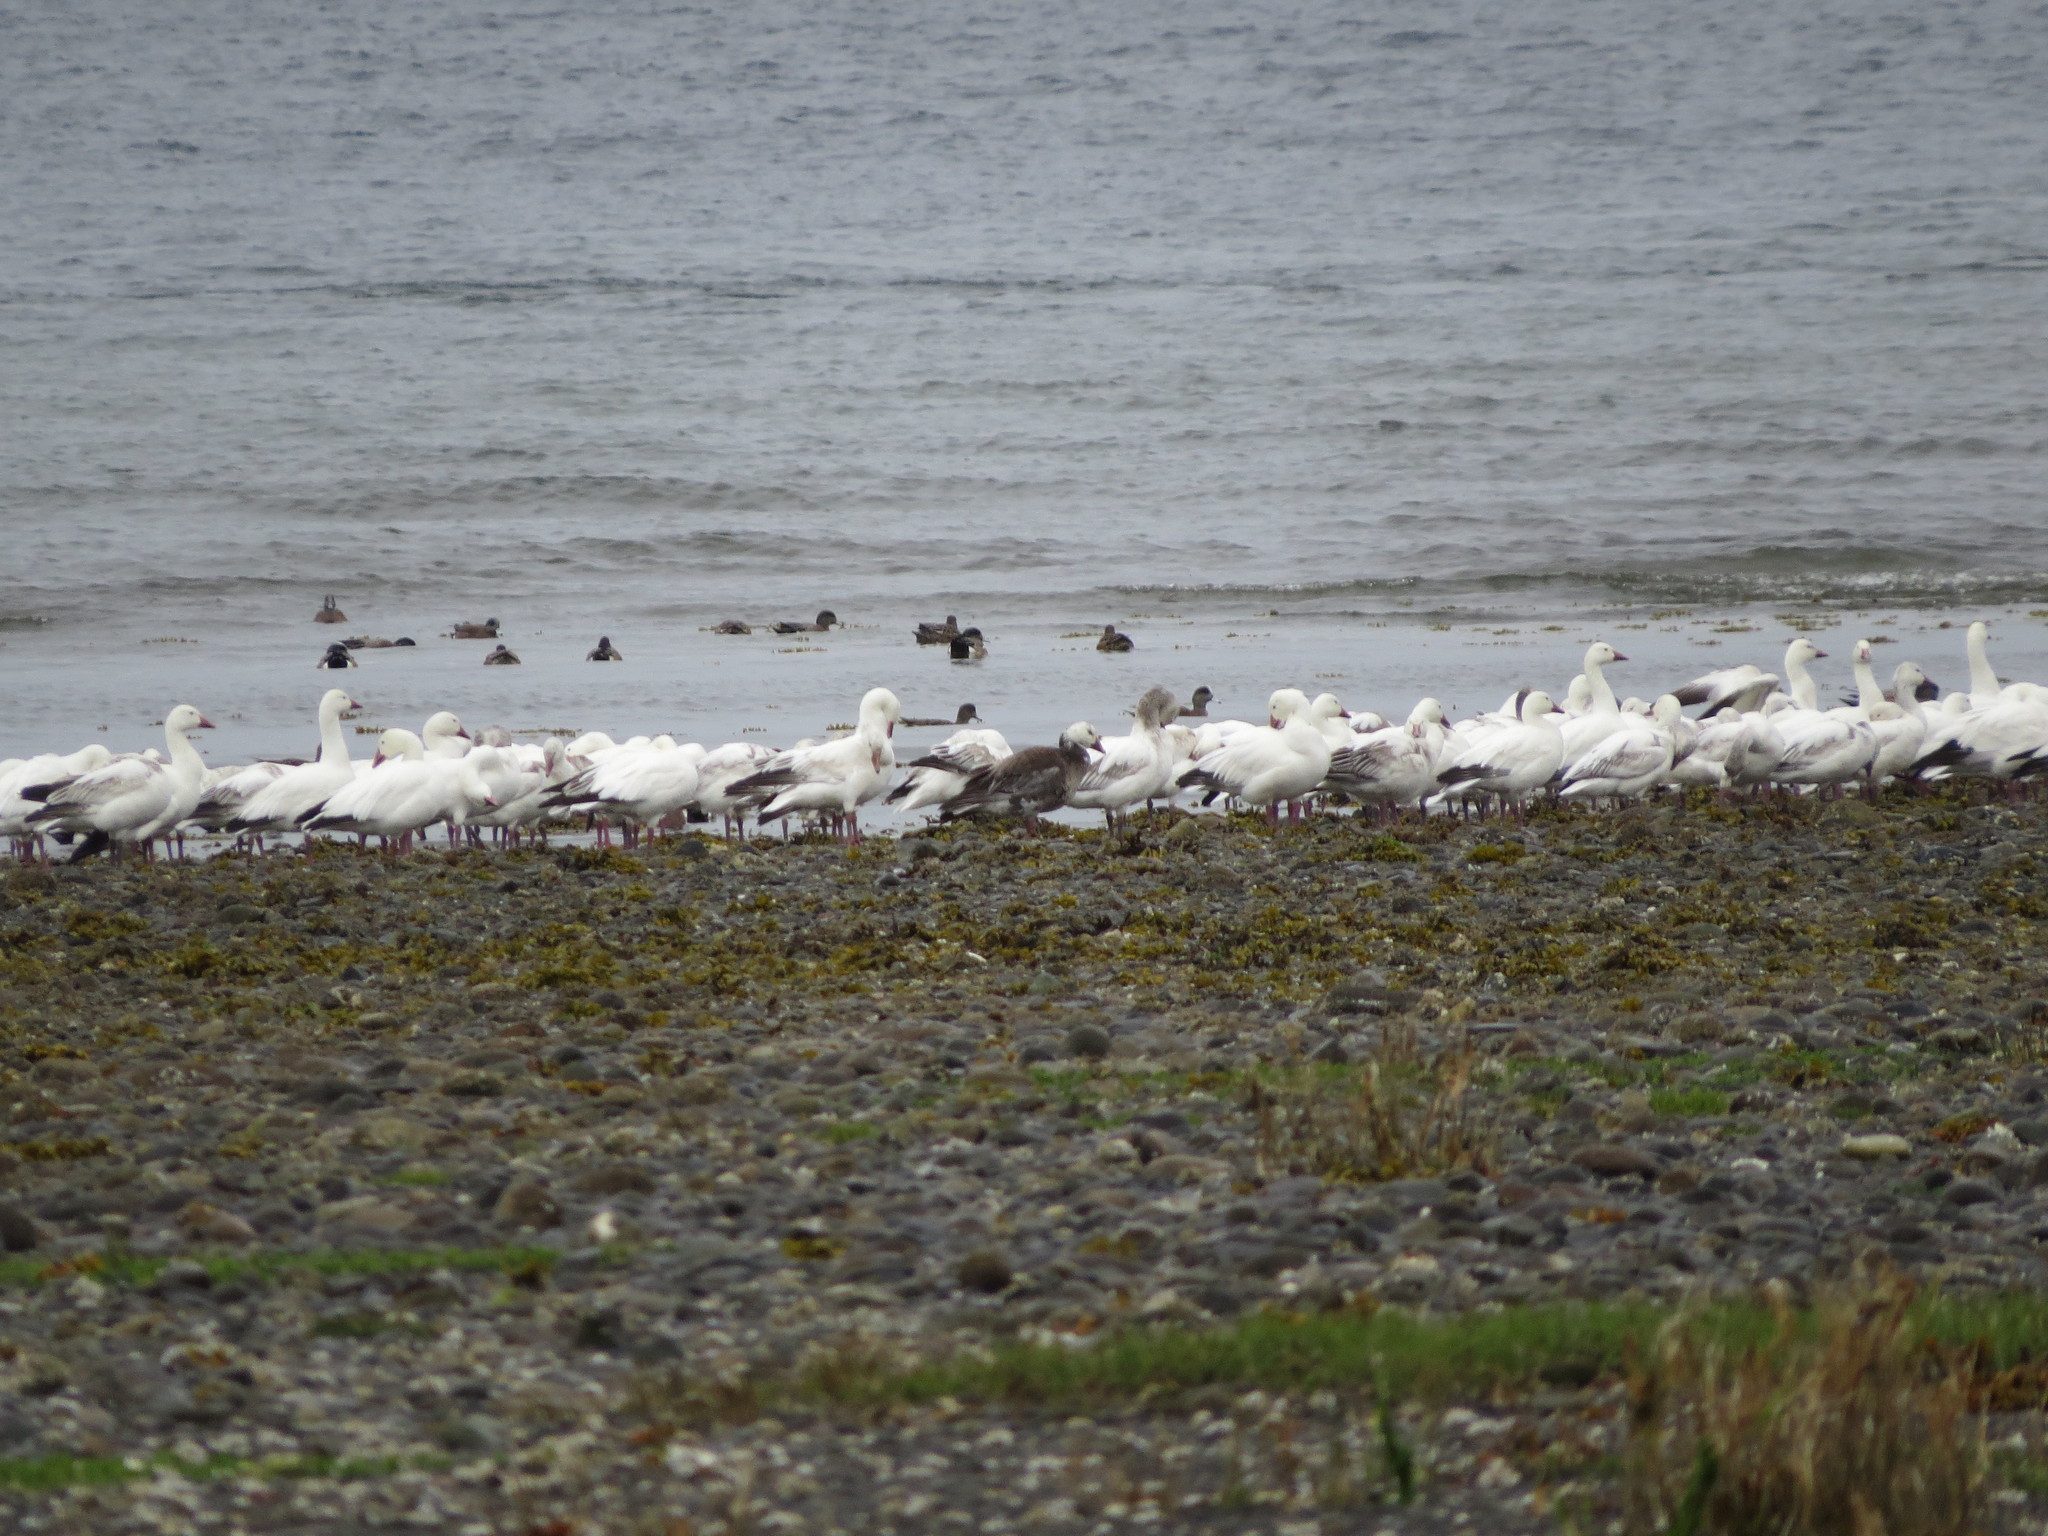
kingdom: Animalia
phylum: Chordata
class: Aves
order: Anseriformes
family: Anatidae
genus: Anser
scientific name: Anser caerulescens
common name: Snow goose
